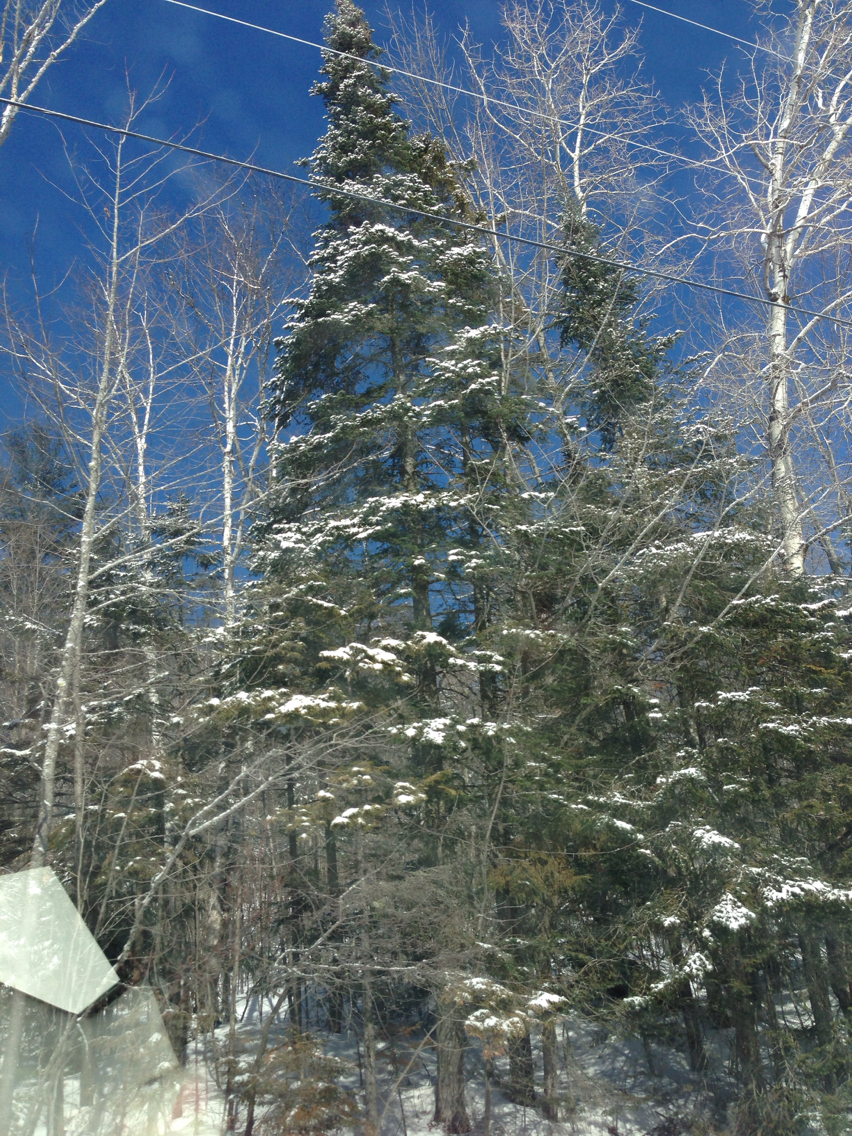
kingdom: Plantae
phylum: Tracheophyta
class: Pinopsida
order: Pinales
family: Pinaceae
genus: Abies
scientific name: Abies balsamea
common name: Balsam fir
